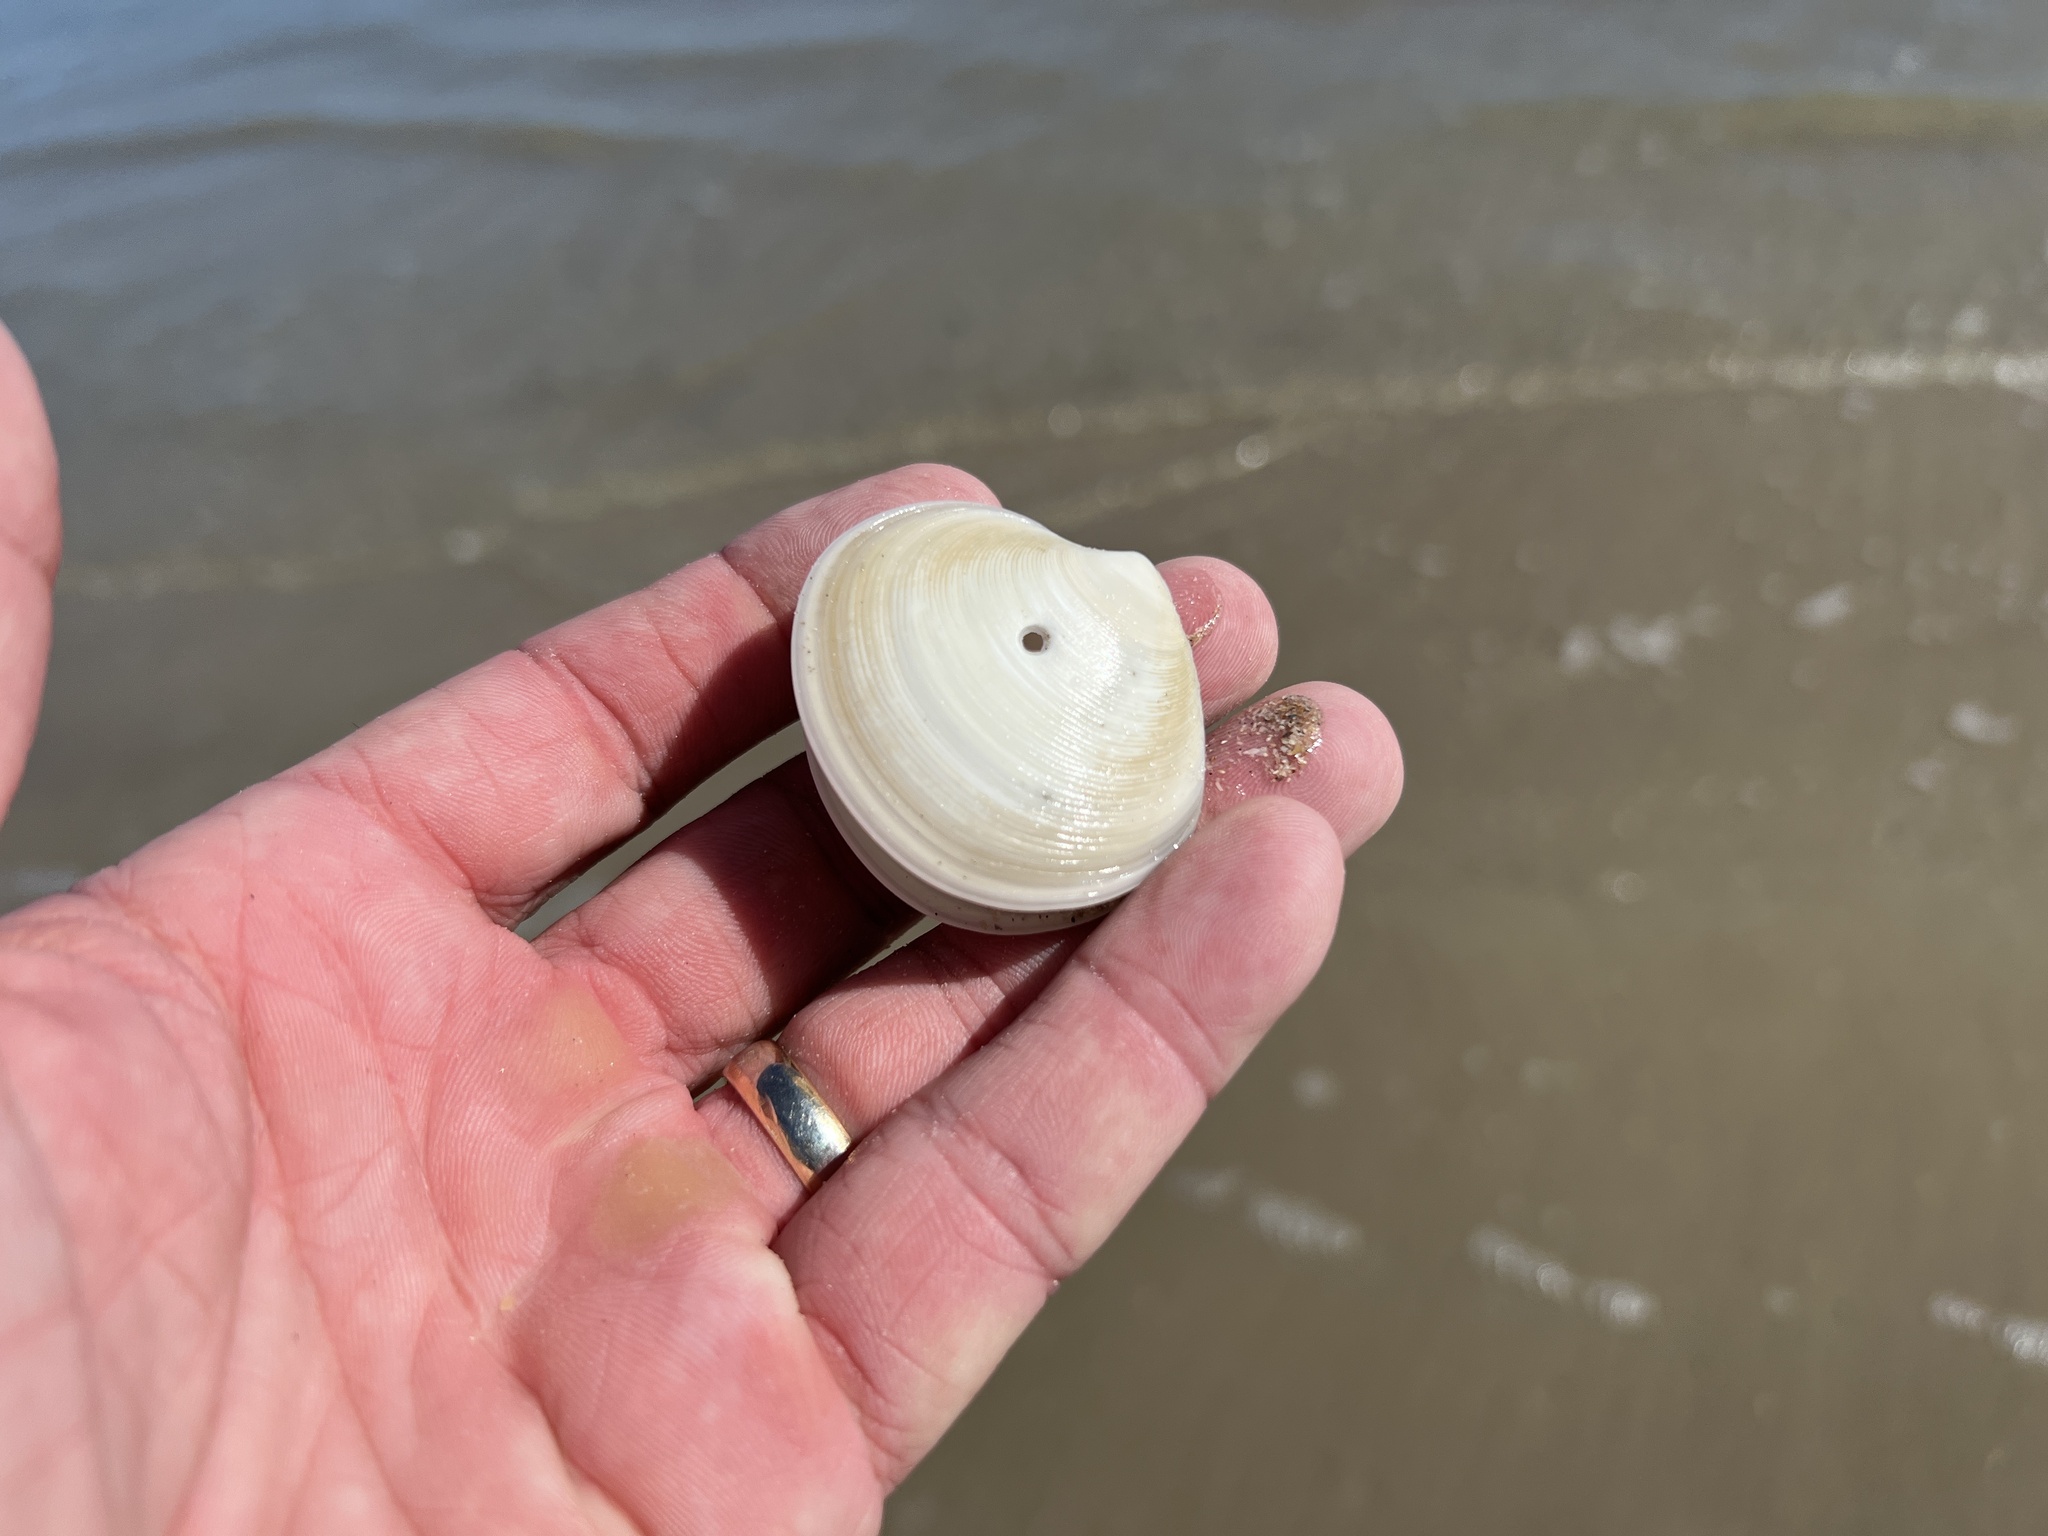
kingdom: Animalia
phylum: Mollusca
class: Bivalvia
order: Venerida
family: Veneridae
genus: Dosinia
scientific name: Dosinia discus
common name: Disk dosinia
